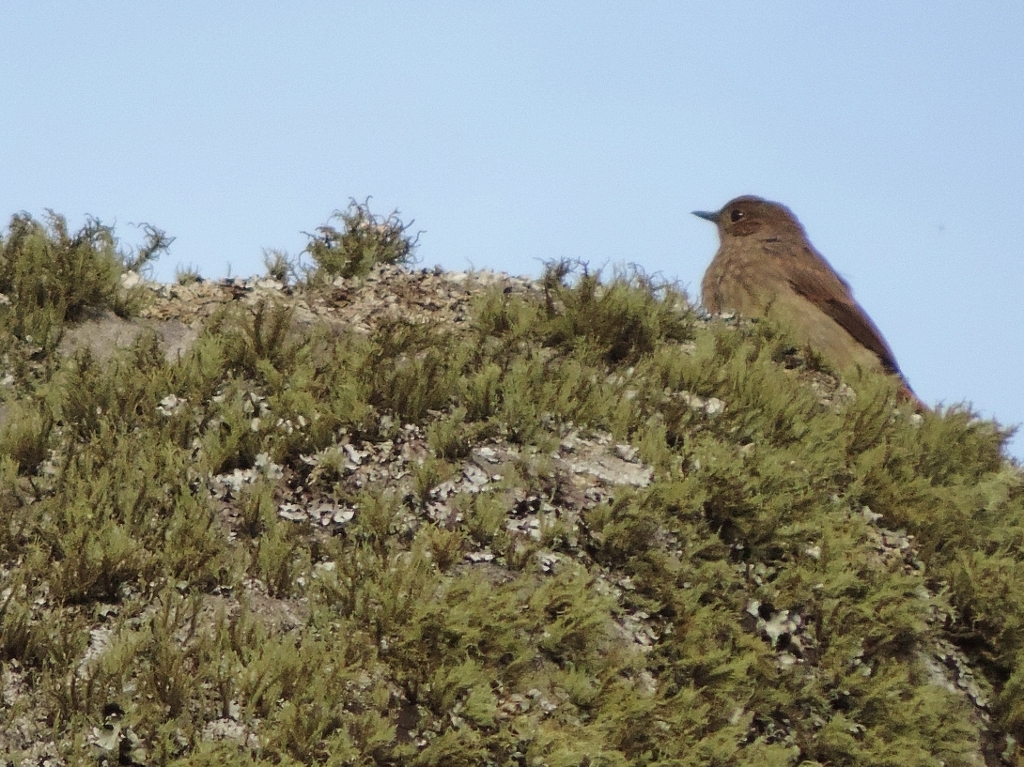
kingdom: Animalia
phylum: Chordata
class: Aves
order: Passeriformes
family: Muscicapidae
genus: Oenanthe
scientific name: Oenanthe familiaris
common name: Familiar chat
